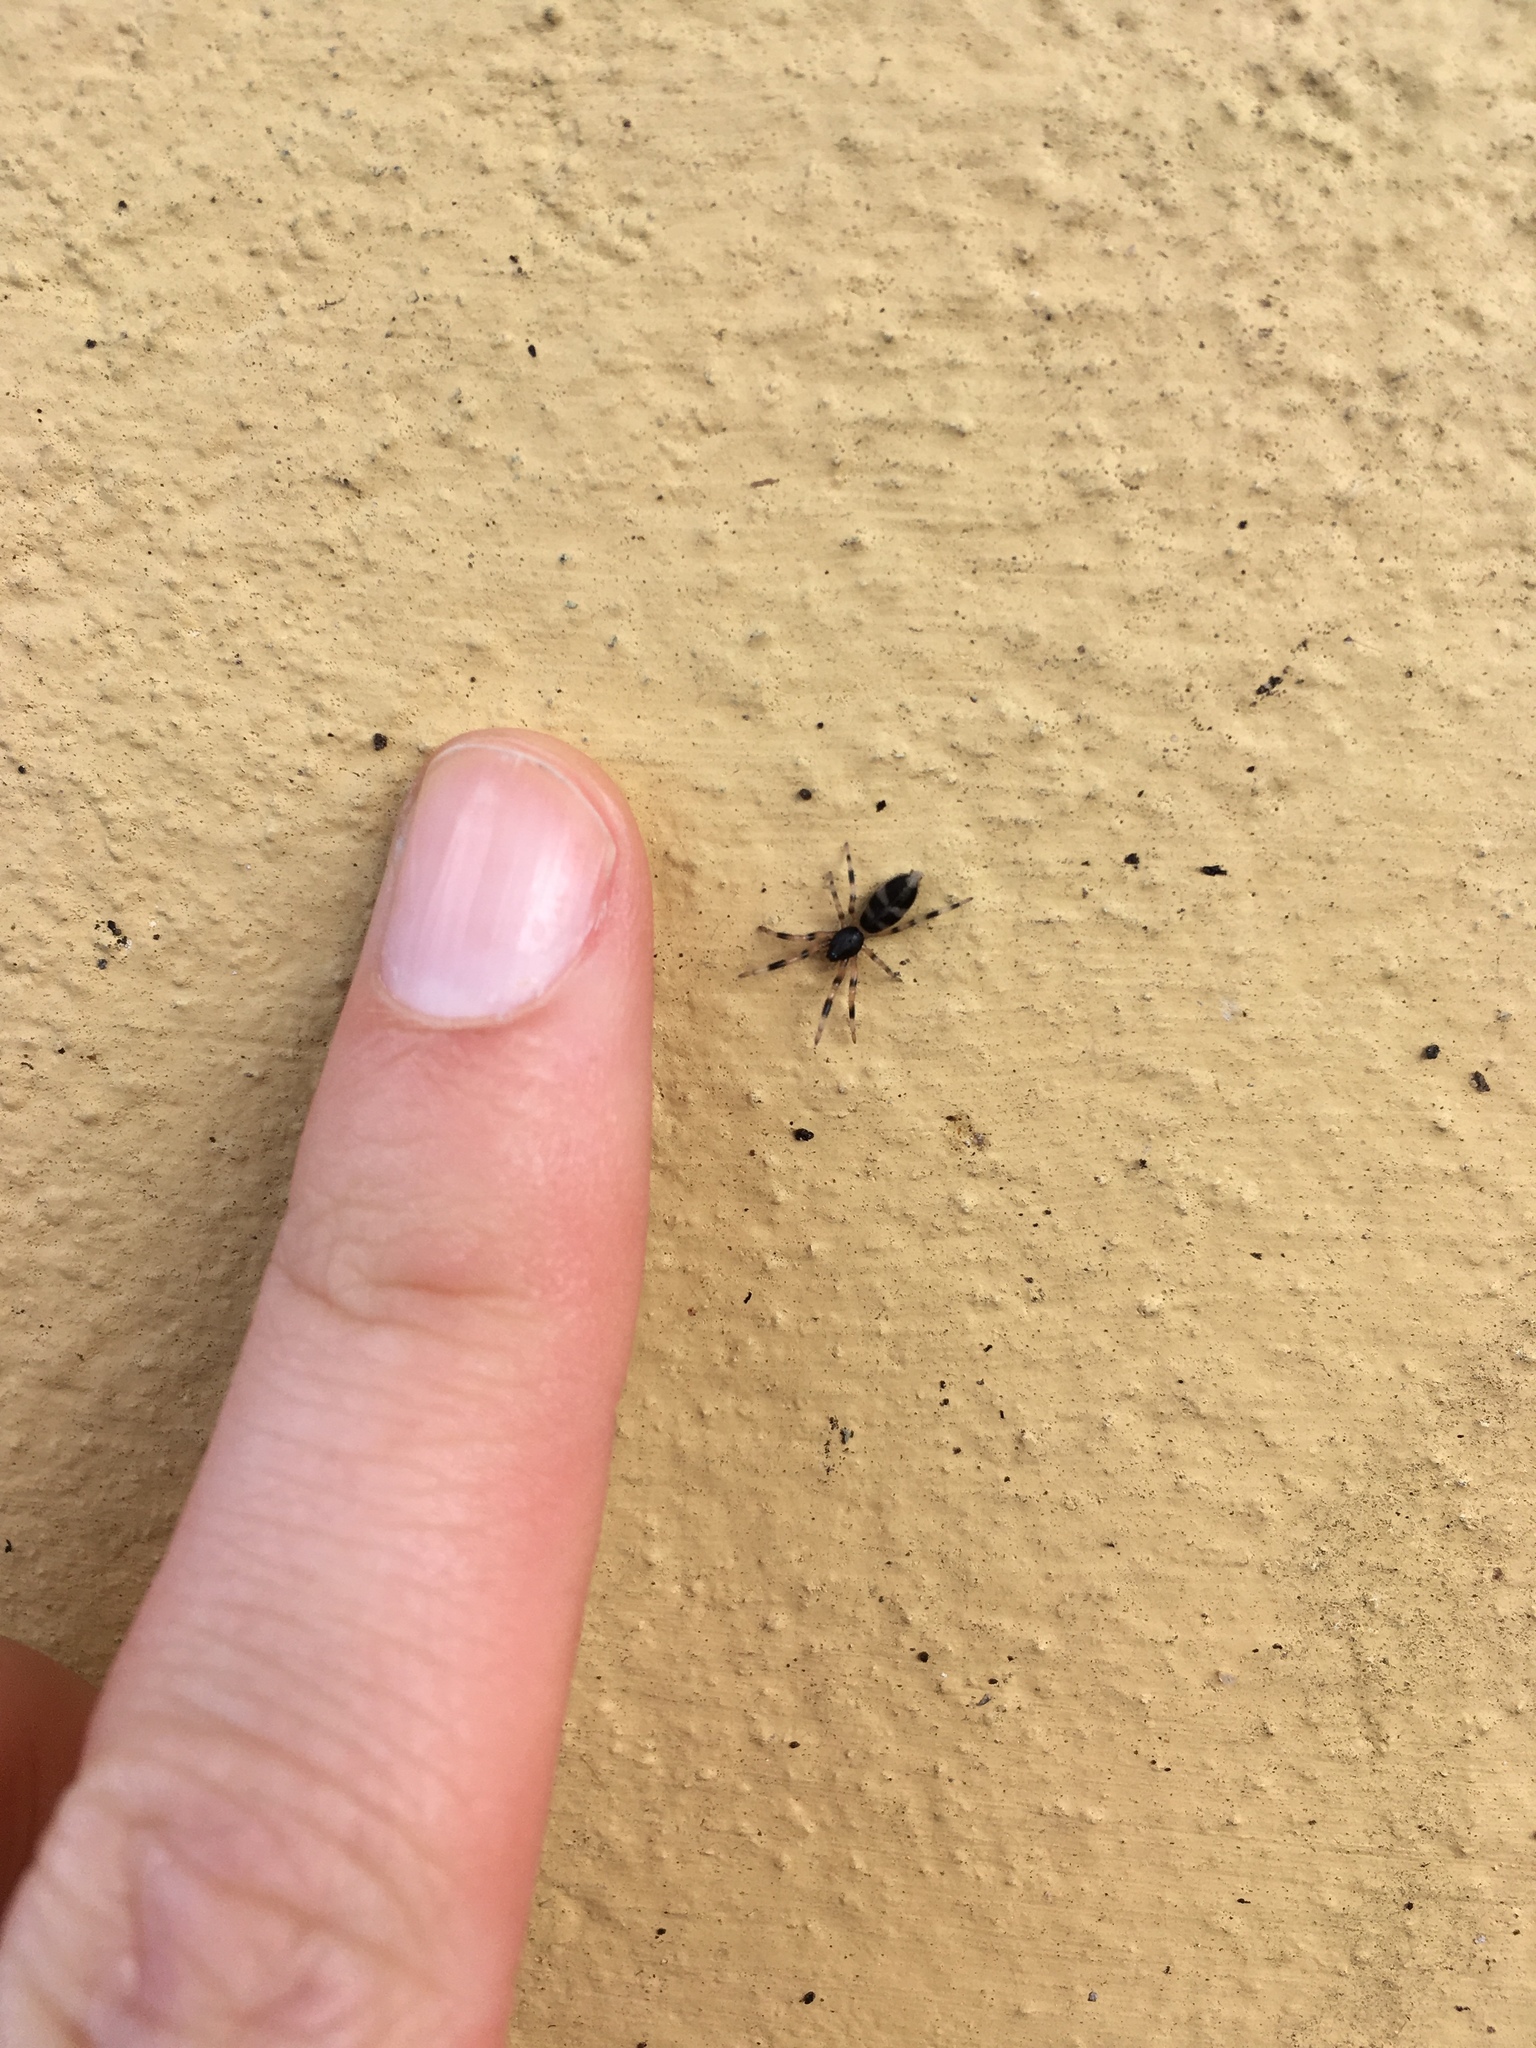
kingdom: Animalia
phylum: Arthropoda
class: Arachnida
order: Araneae
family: Lamponidae
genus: Lampona
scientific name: Lampona murina
